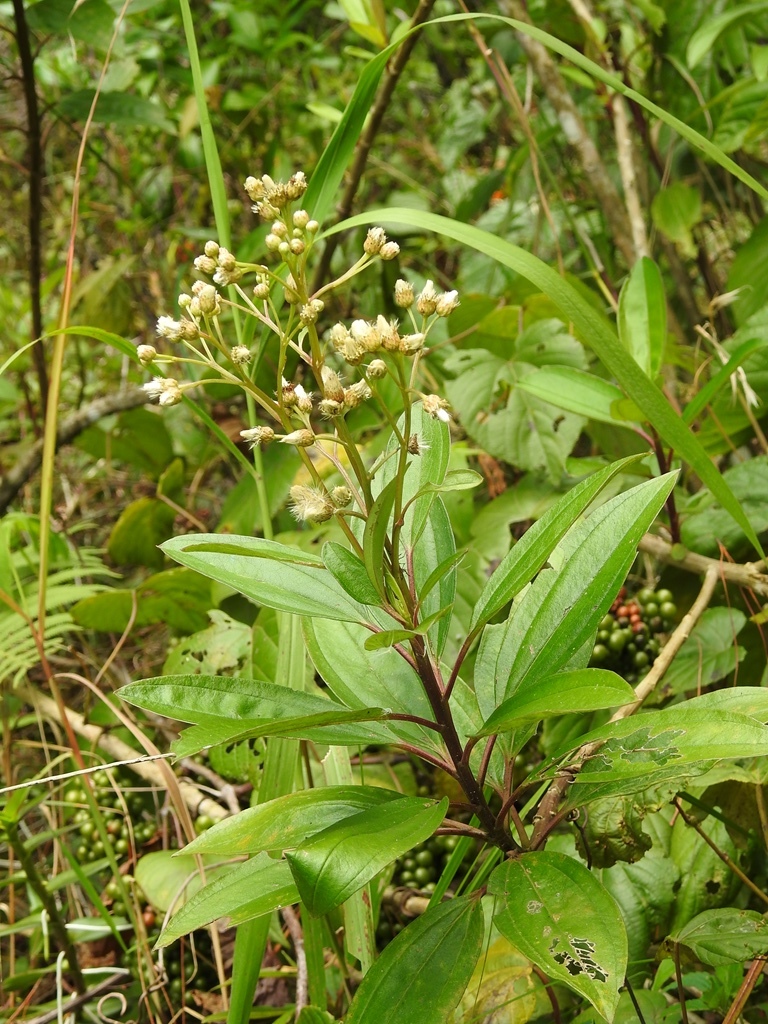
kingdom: Plantae
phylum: Tracheophyta
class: Magnoliopsida
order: Asterales
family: Asteraceae
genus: Baccharis
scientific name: Baccharis pedunculata
